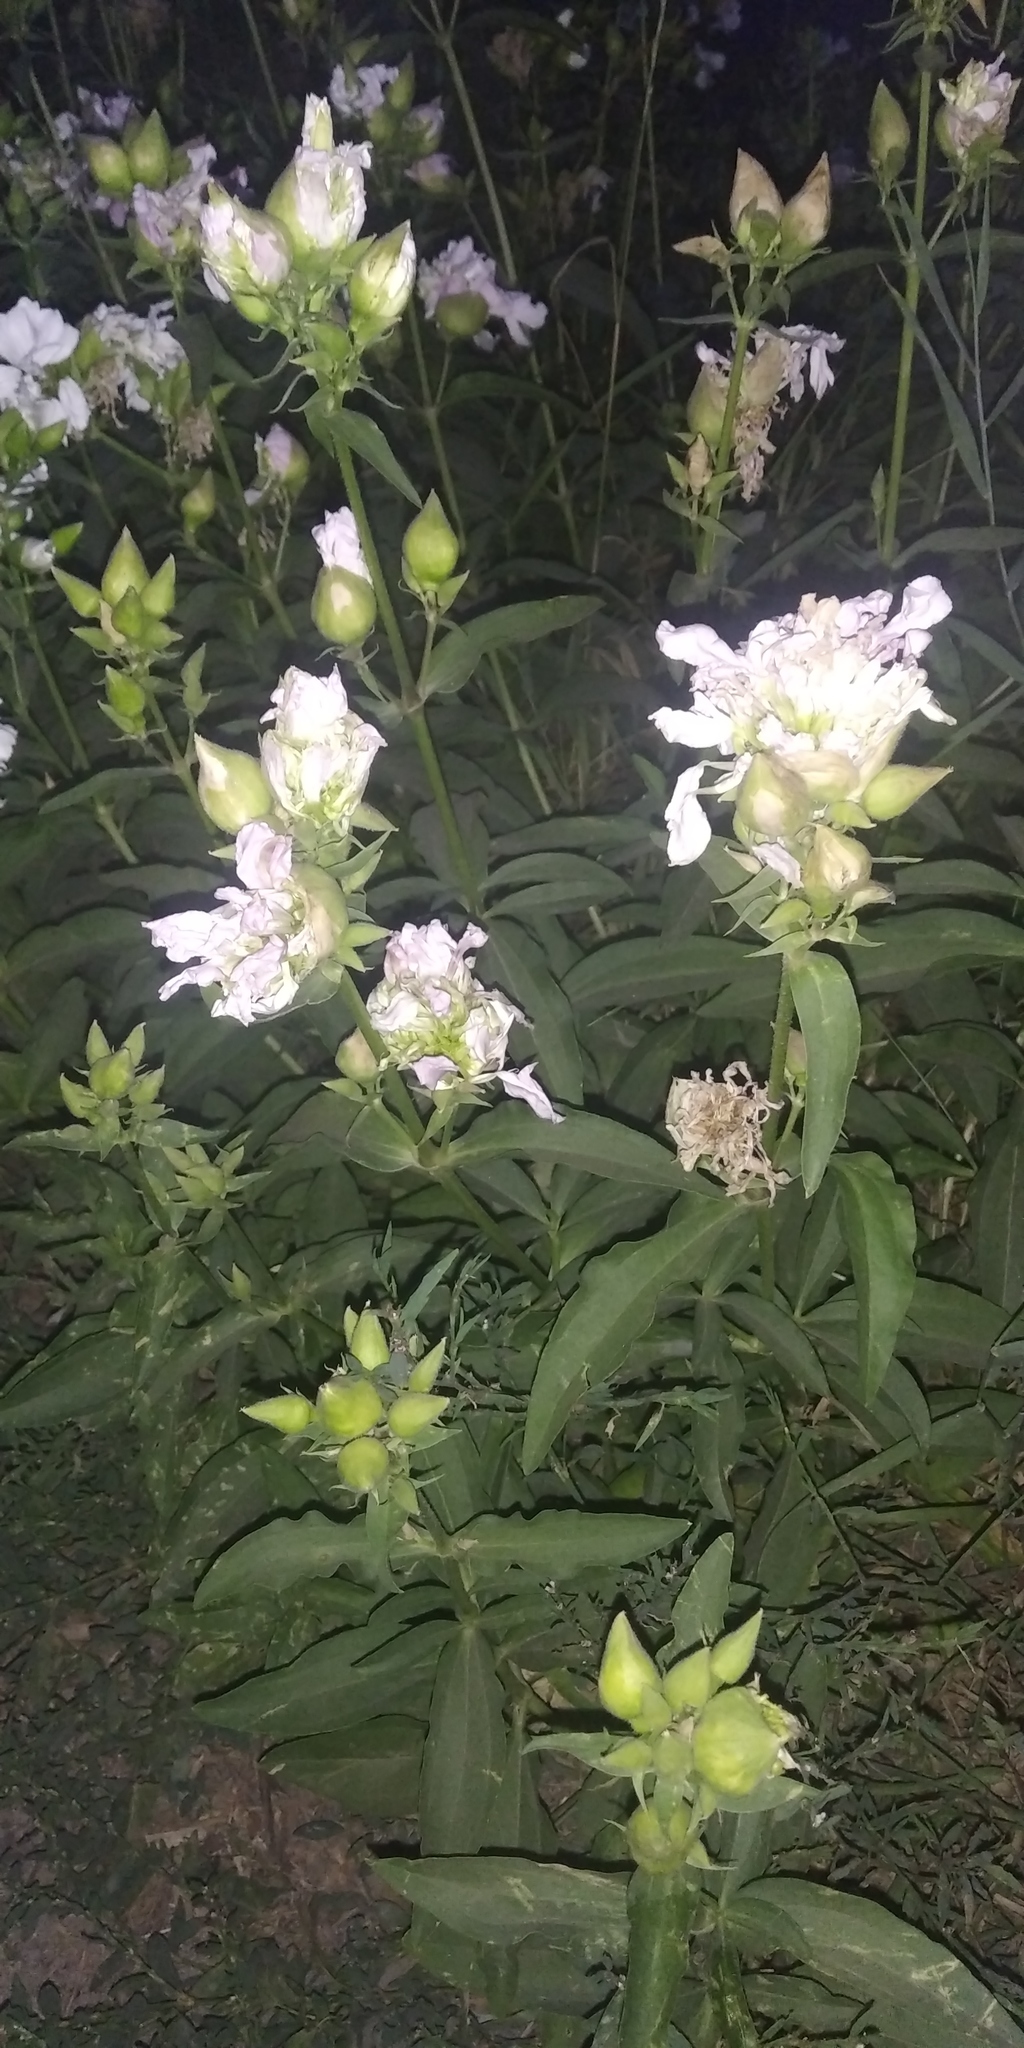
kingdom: Plantae
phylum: Tracheophyta
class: Magnoliopsida
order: Caryophyllales
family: Caryophyllaceae
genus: Saponaria
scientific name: Saponaria officinalis
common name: Soapwort
